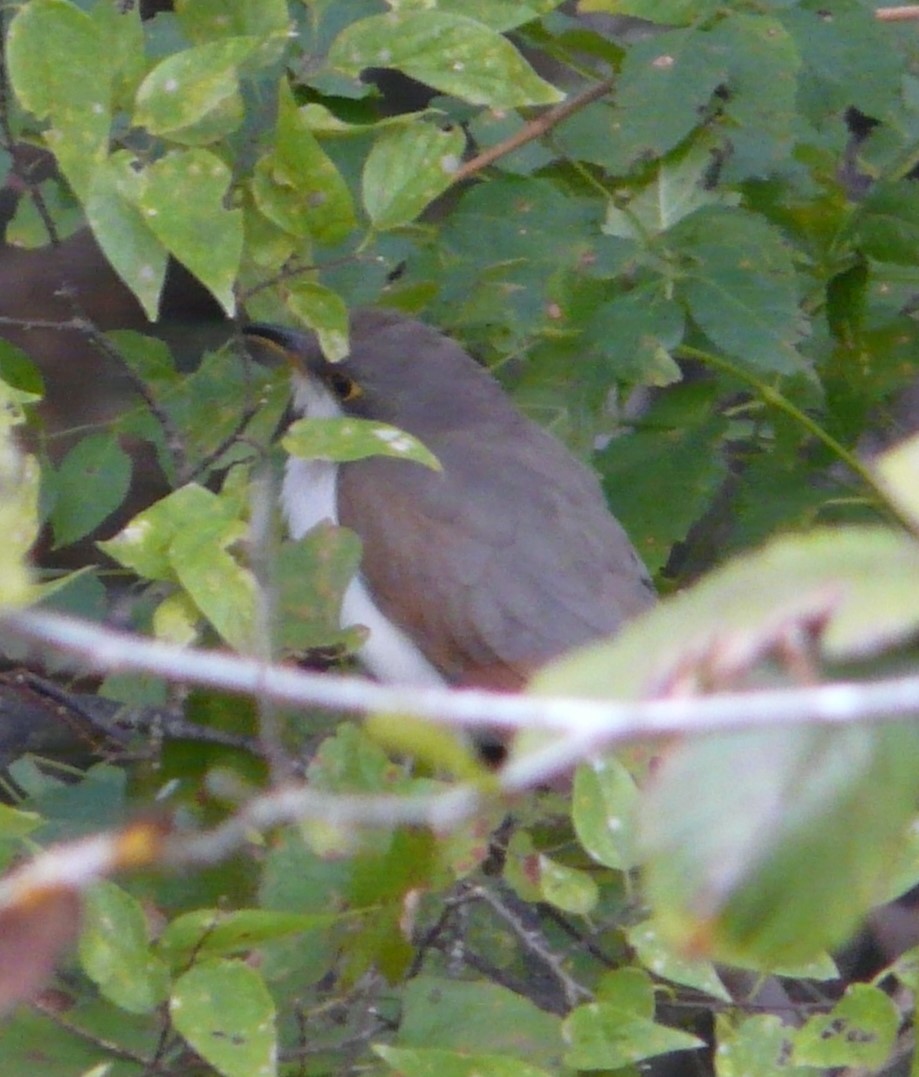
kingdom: Animalia
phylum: Chordata
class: Aves
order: Cuculiformes
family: Cuculidae
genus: Coccyzus
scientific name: Coccyzus americanus
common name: Yellow-billed cuckoo
